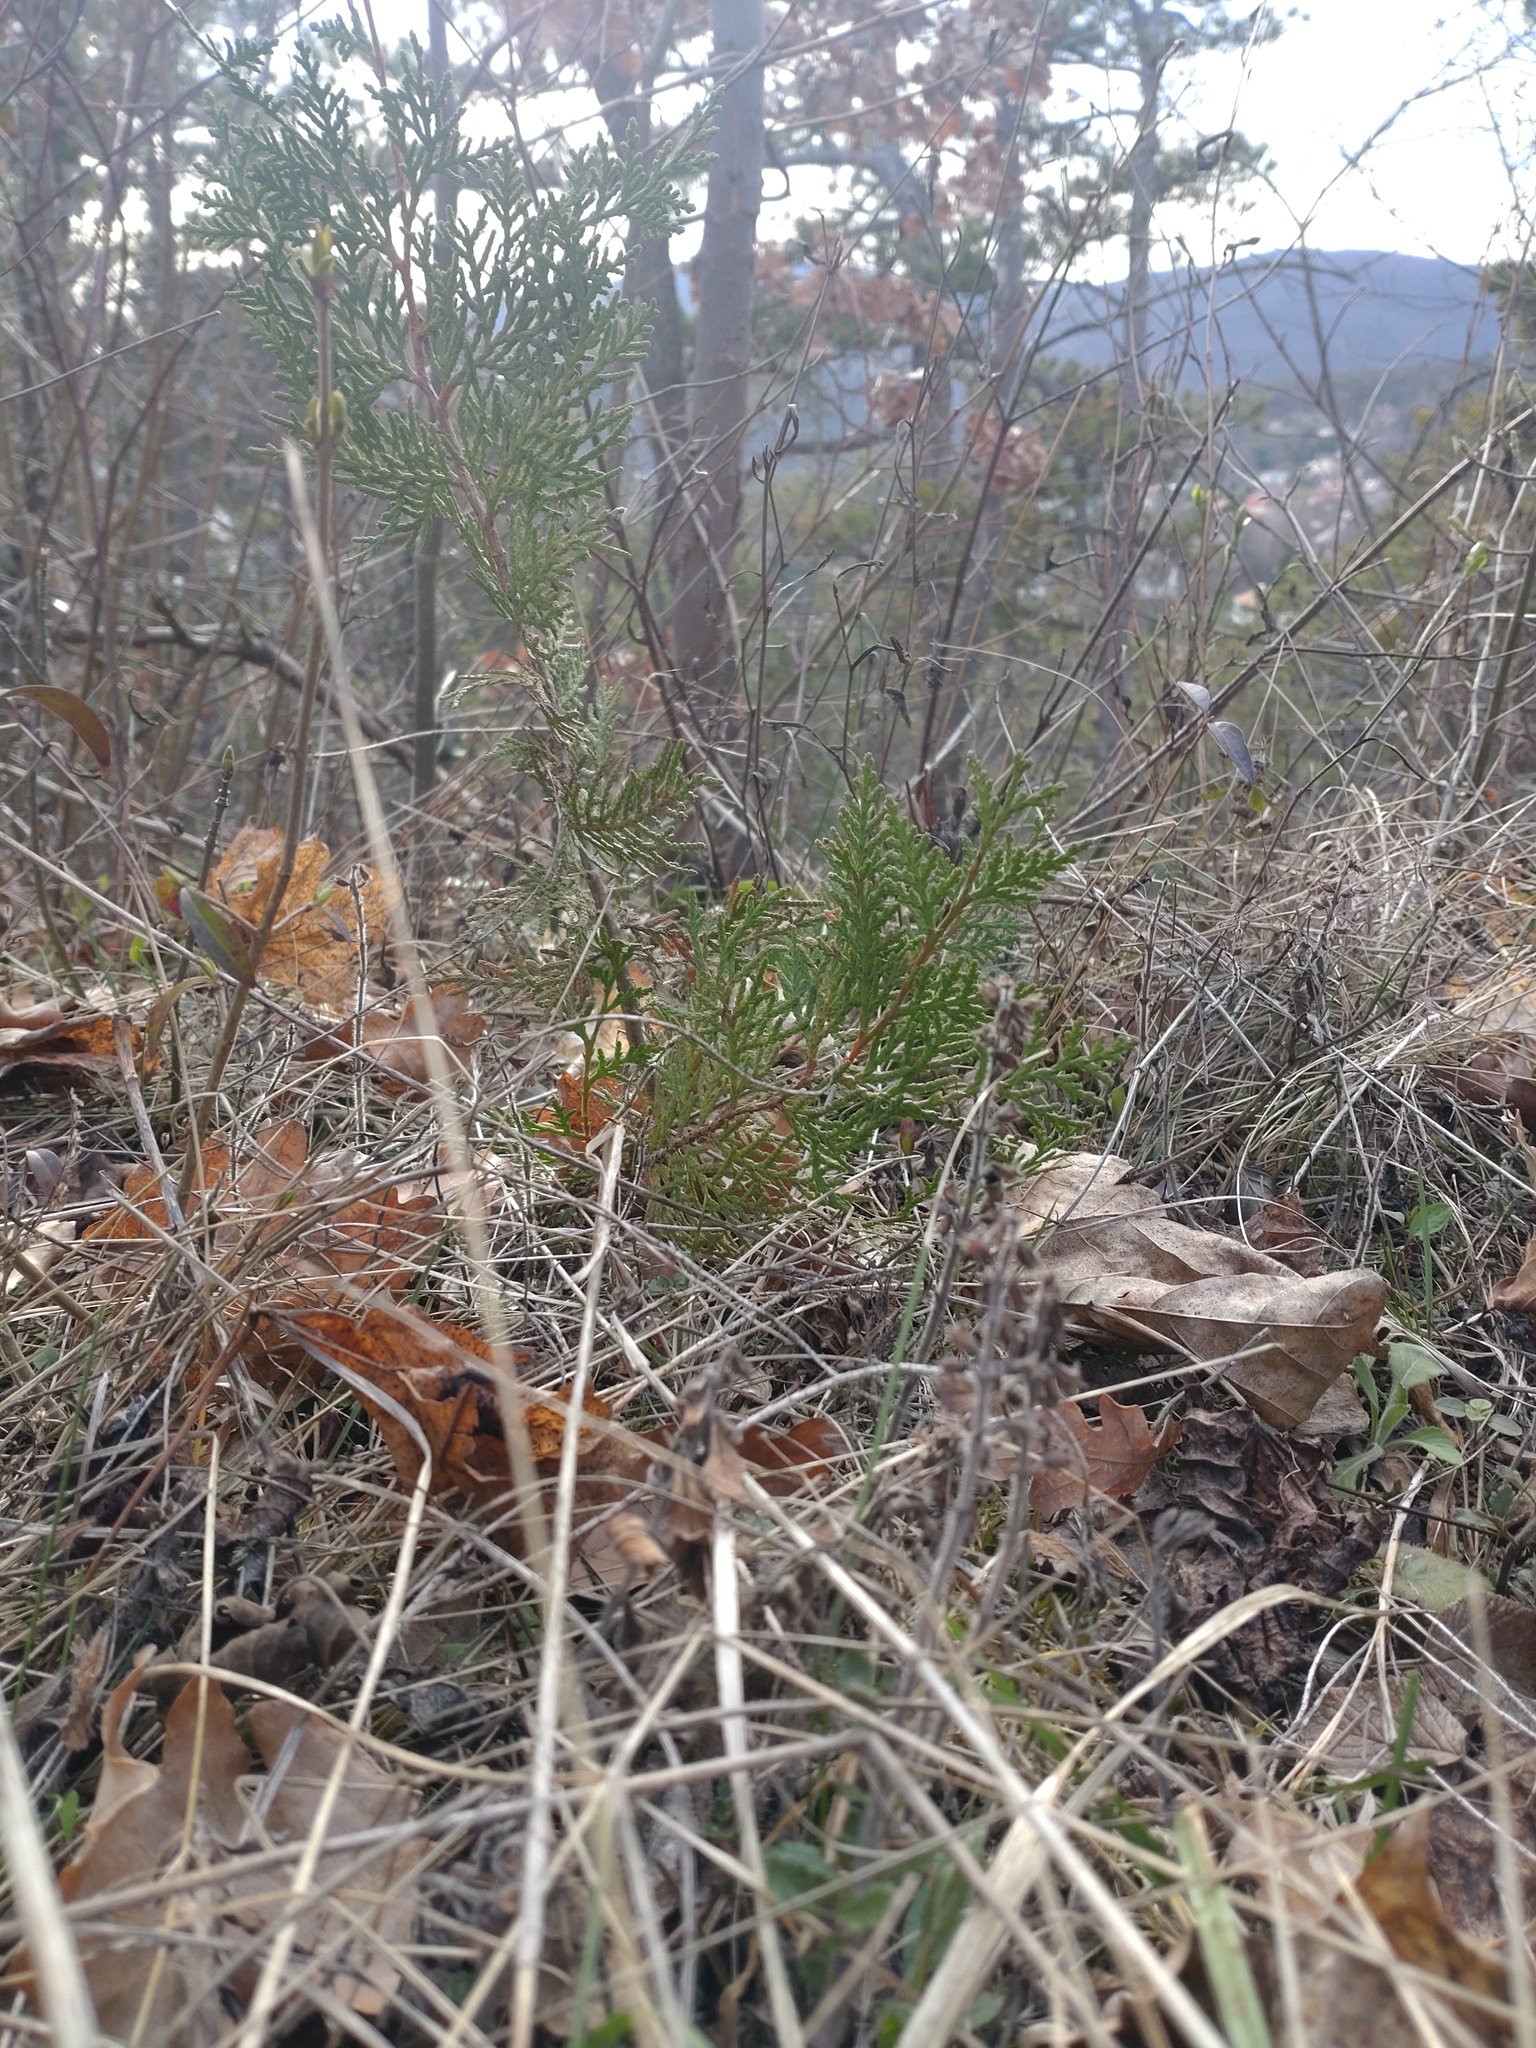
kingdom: Plantae
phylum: Tracheophyta
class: Pinopsida
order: Pinales
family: Cupressaceae
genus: Platycladus
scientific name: Platycladus orientalis
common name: Chinese thuja
